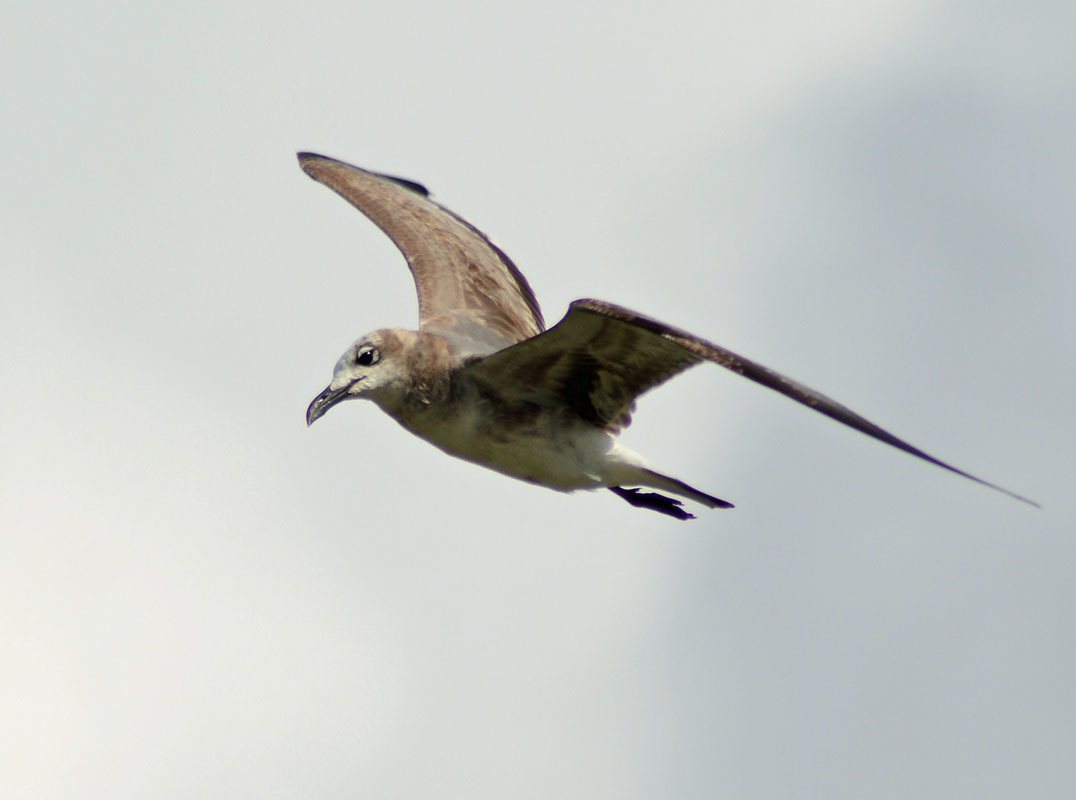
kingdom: Animalia
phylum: Chordata
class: Aves
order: Charadriiformes
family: Laridae
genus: Leucophaeus
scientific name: Leucophaeus atricilla
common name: Laughing gull
